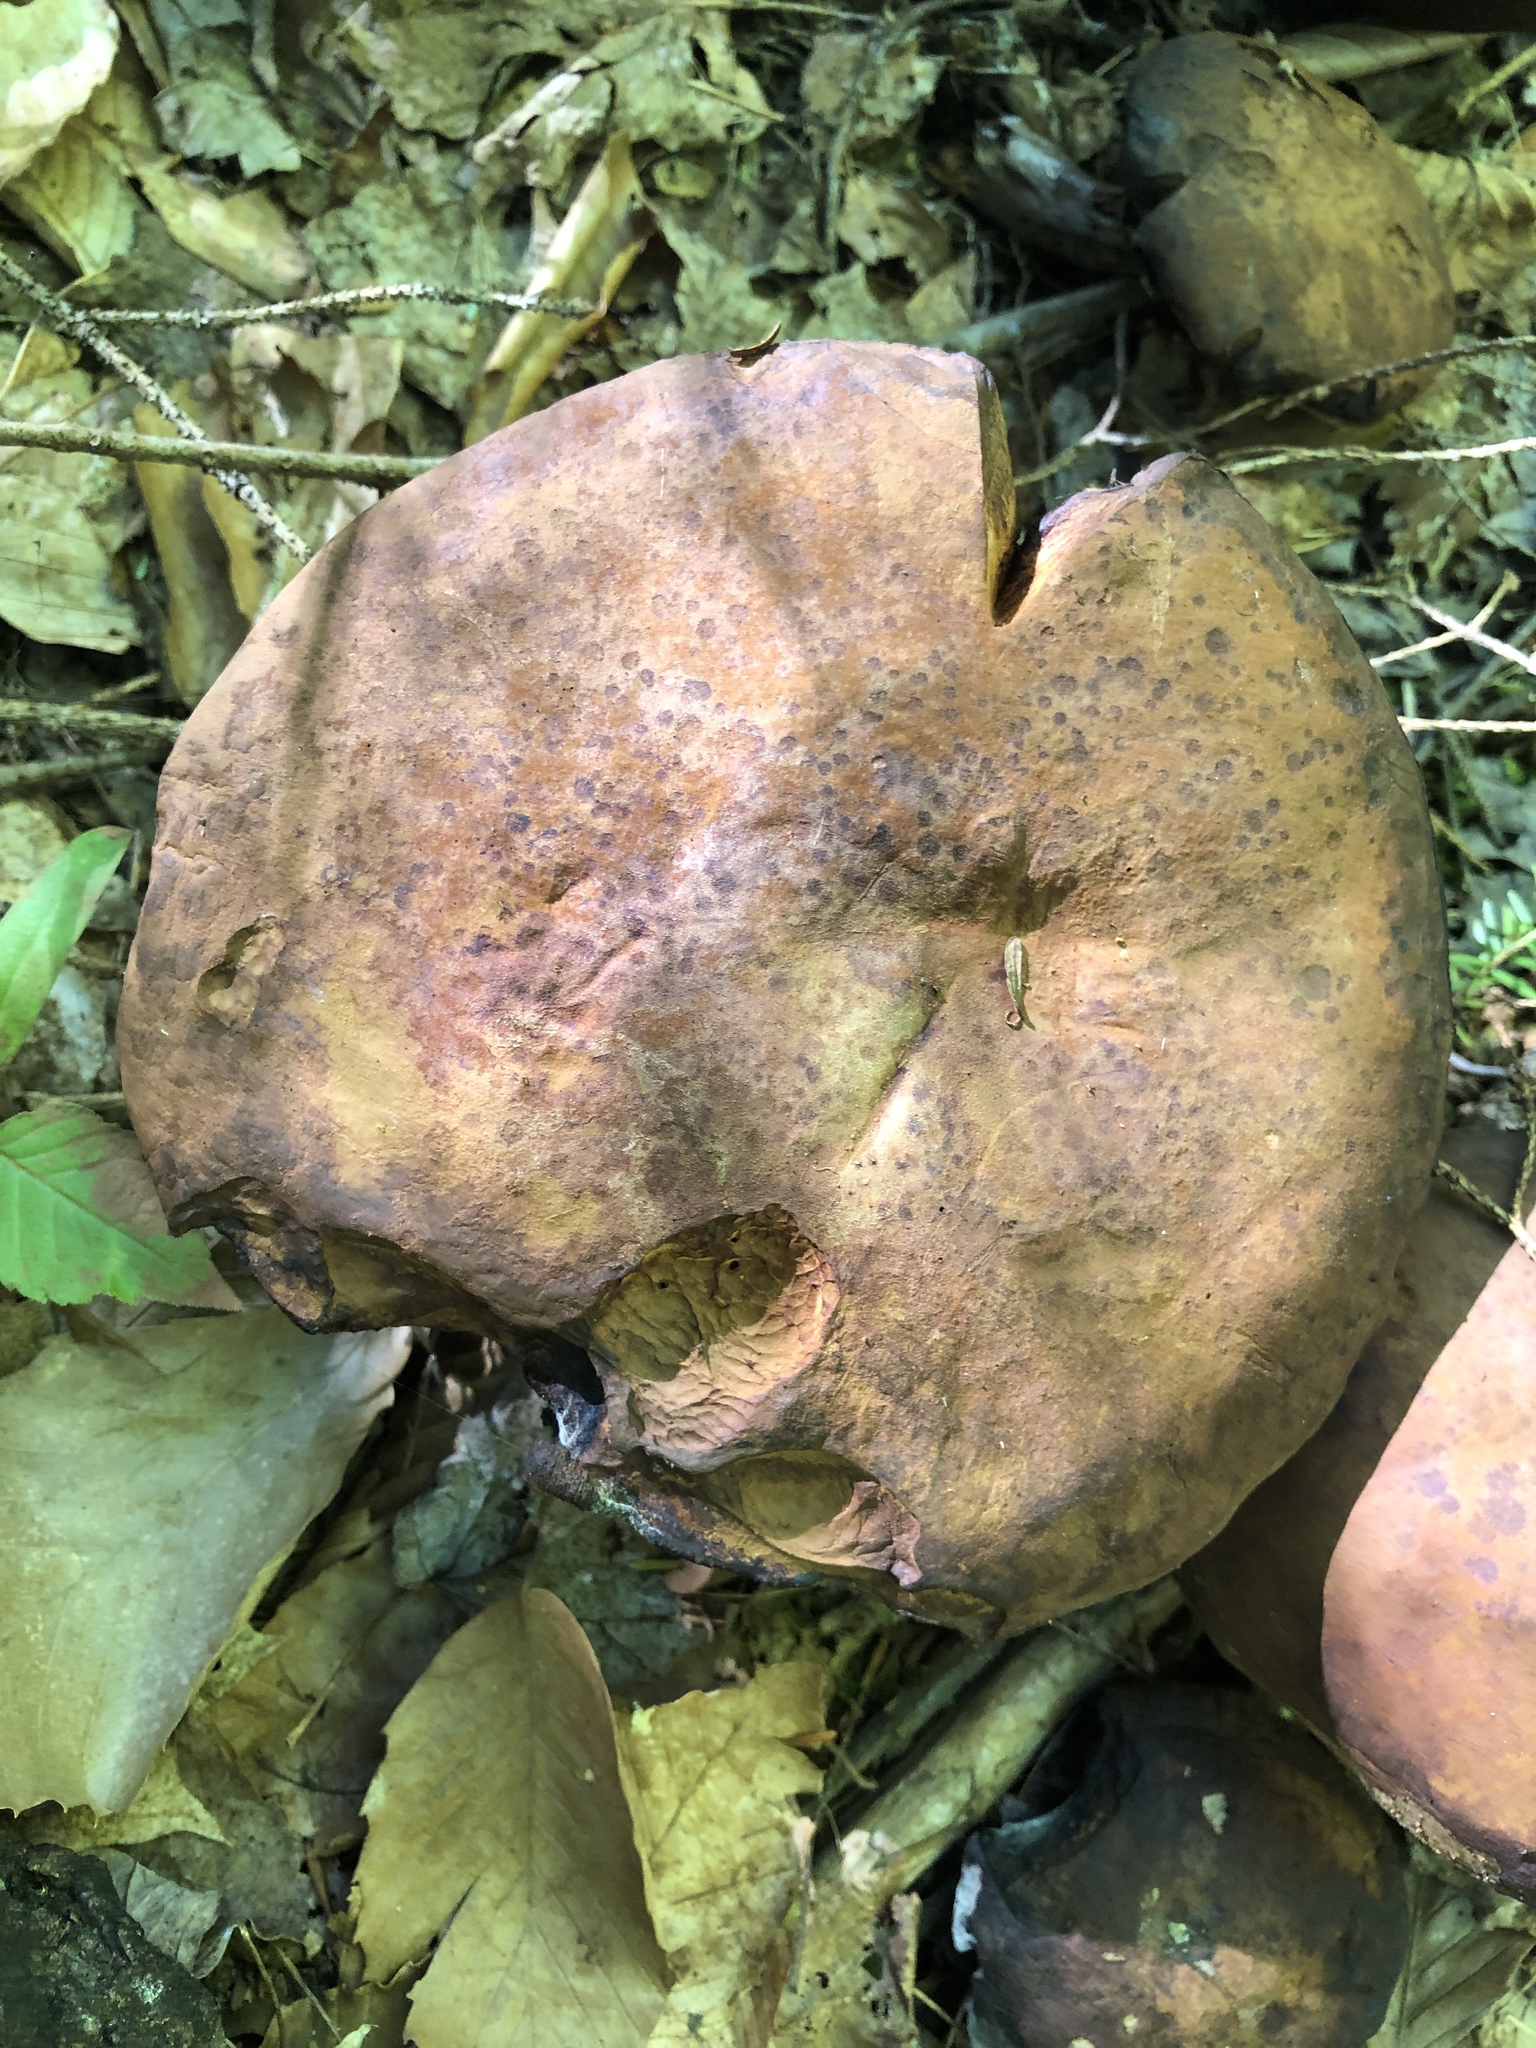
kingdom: Fungi
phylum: Ascomycota
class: Sordariomycetes
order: Hypocreales
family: Hypocreaceae
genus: Hypomyces
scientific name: Hypomyces chrysospermus
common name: Bolete mould
